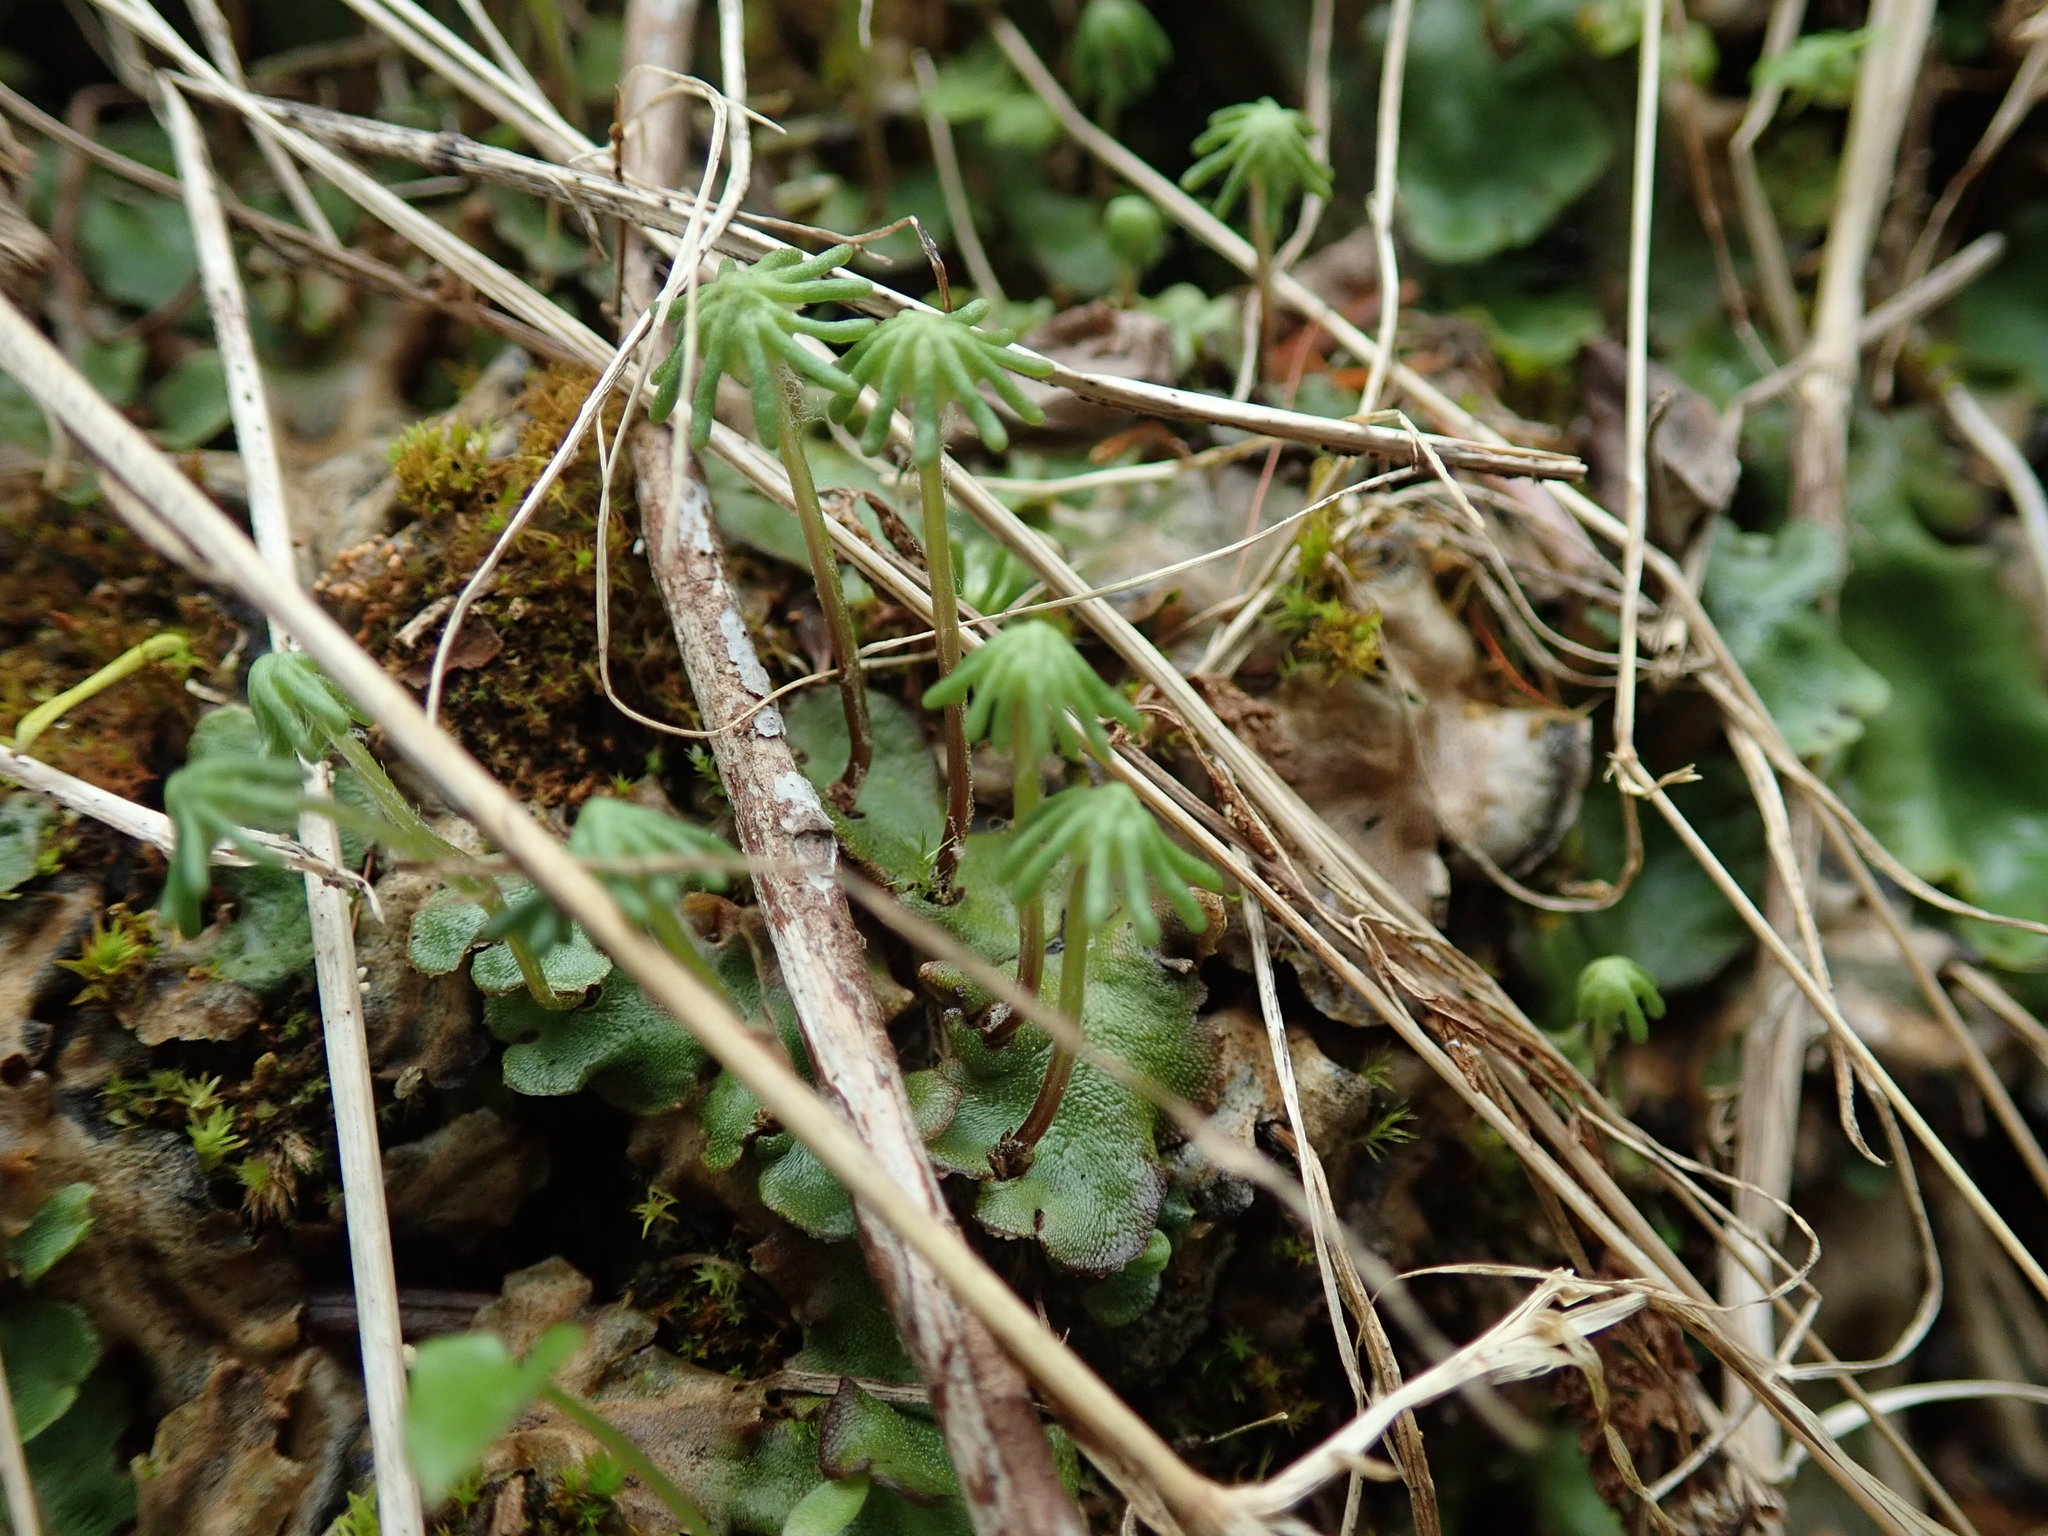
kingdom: Plantae
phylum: Marchantiophyta
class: Marchantiopsida
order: Marchantiales
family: Marchantiaceae
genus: Marchantia
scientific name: Marchantia polymorpha
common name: Common liverwort
